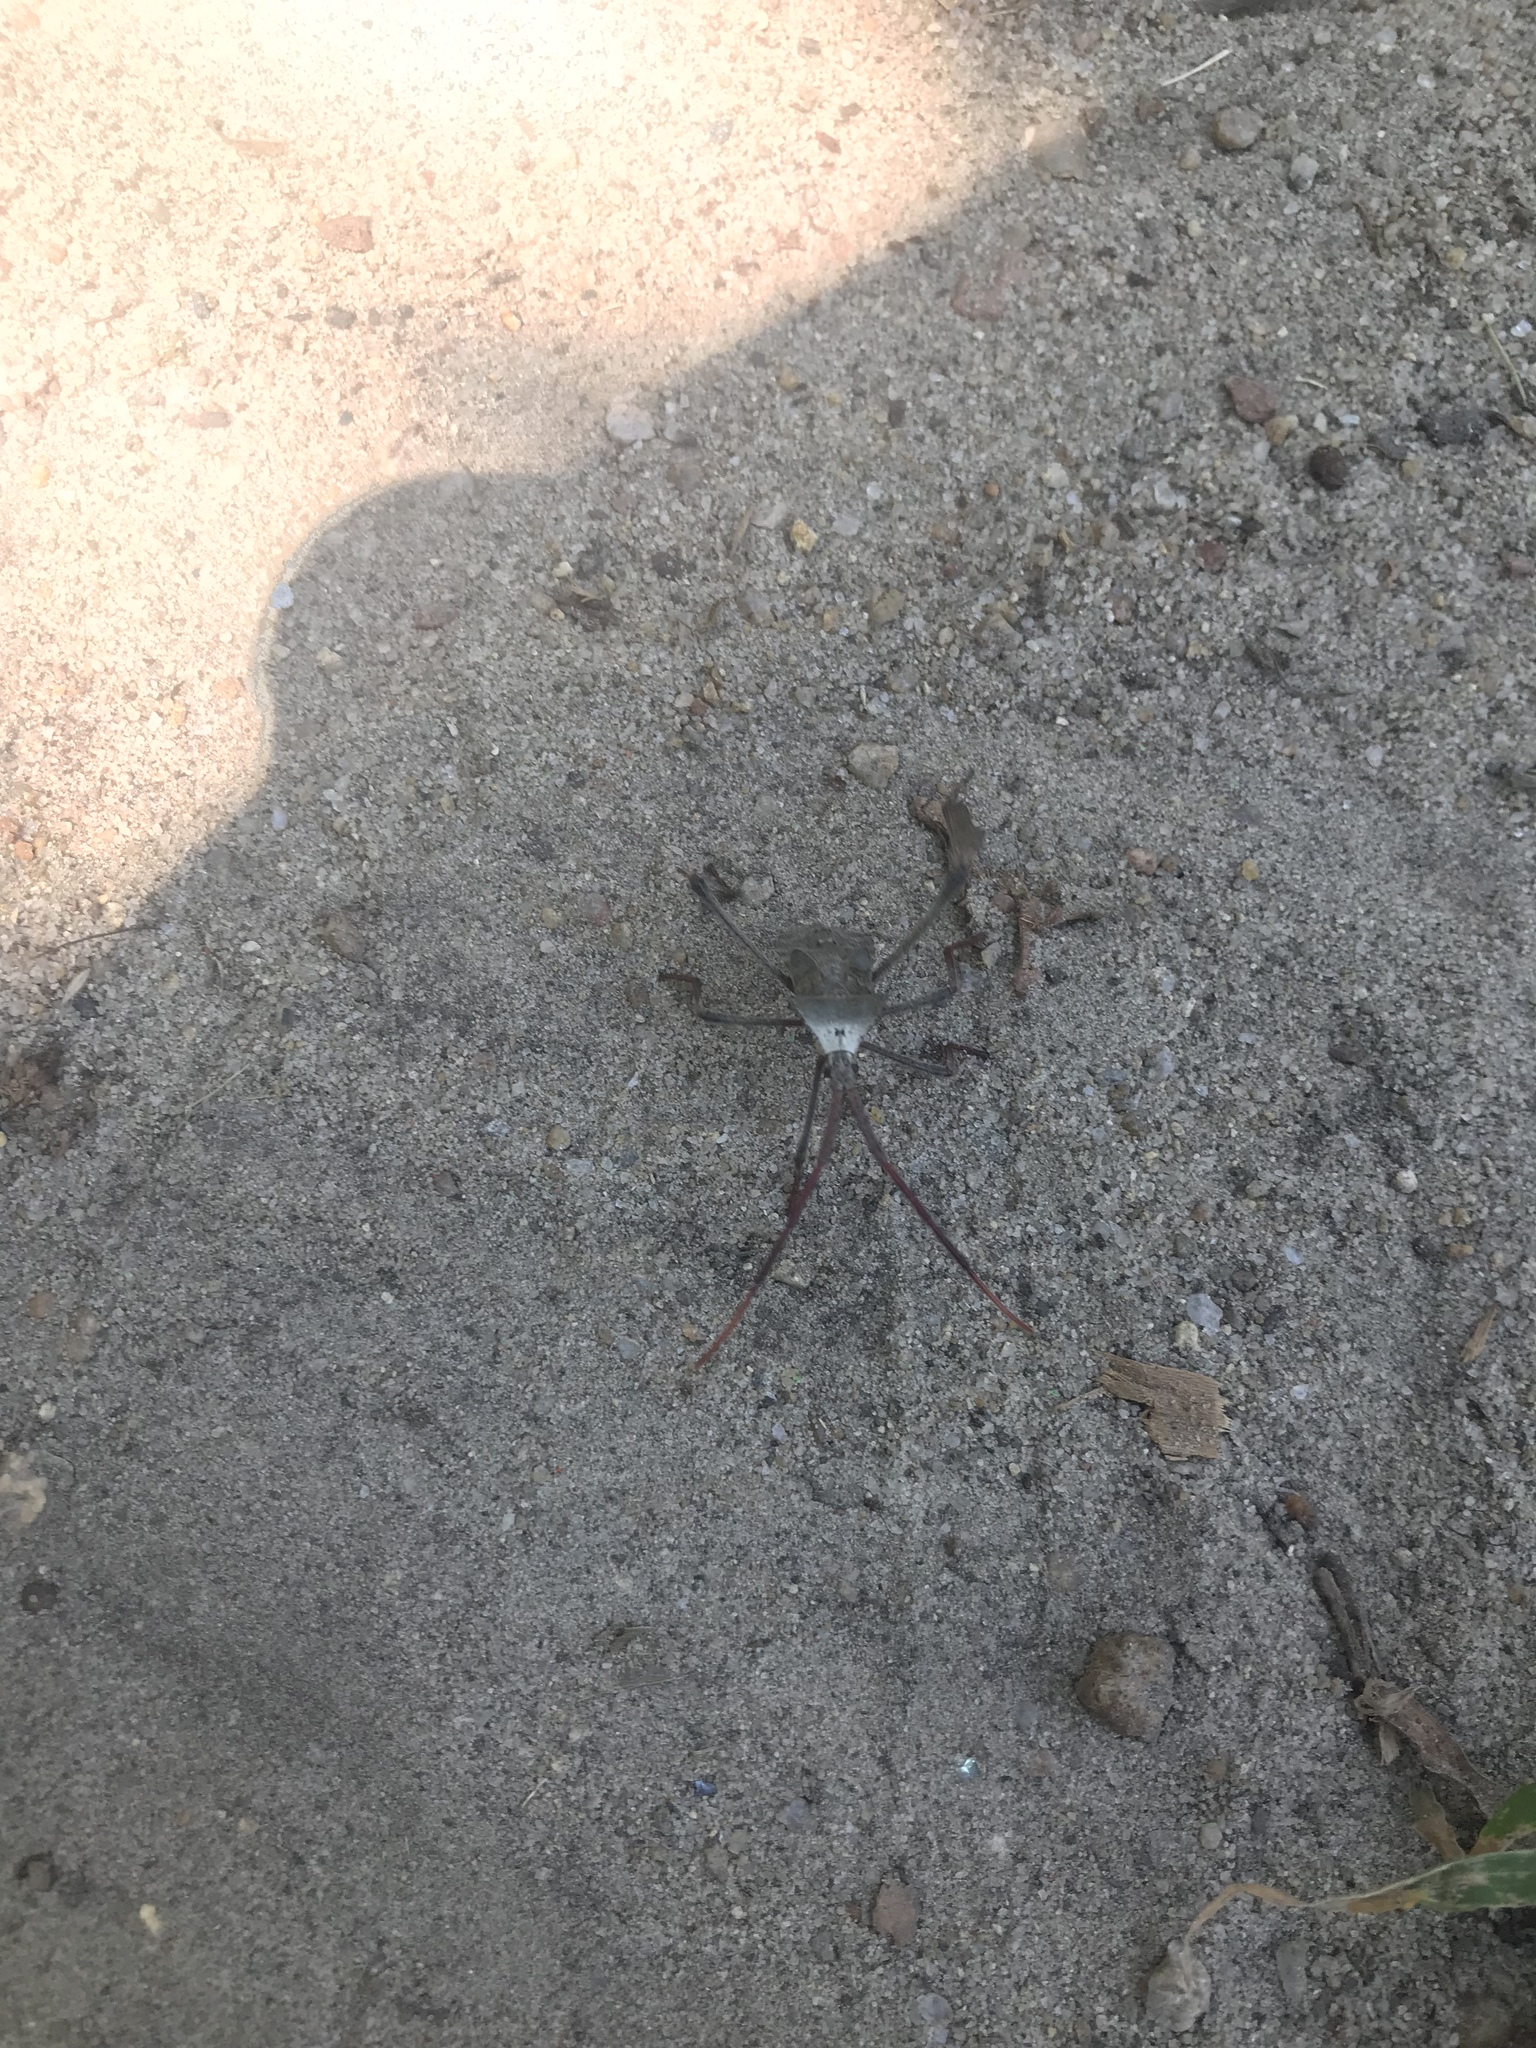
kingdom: Animalia
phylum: Arthropoda
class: Insecta
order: Hemiptera
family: Coreidae
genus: Acanthocephala
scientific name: Acanthocephala declivis
